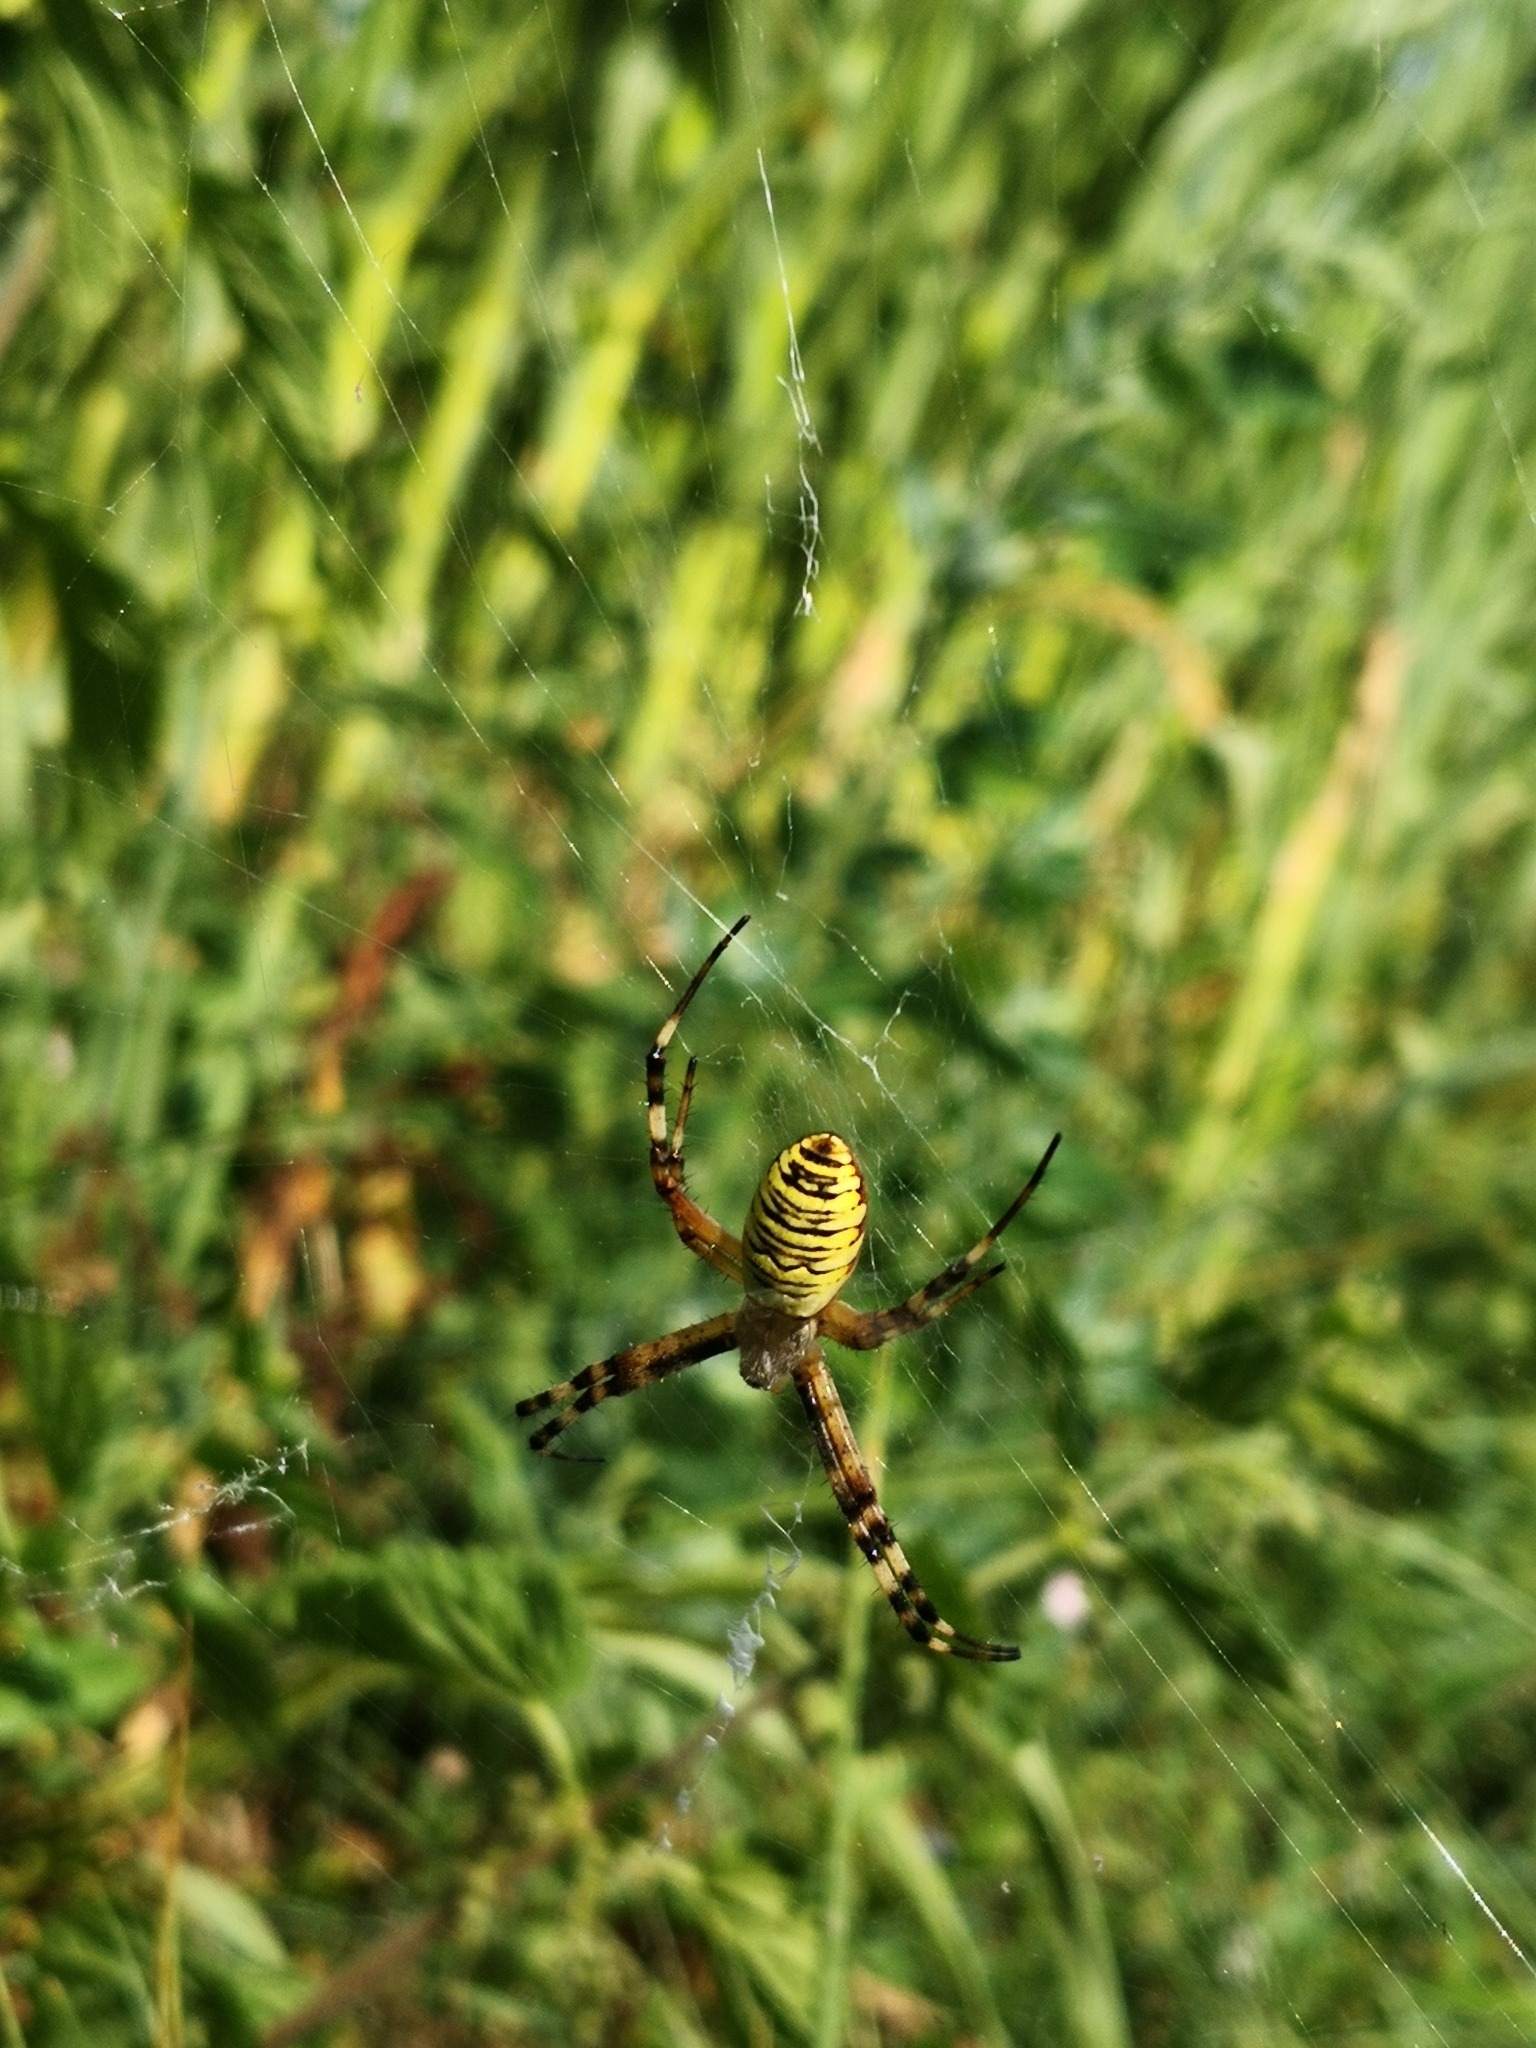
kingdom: Animalia
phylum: Arthropoda
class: Arachnida
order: Araneae
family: Araneidae
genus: Argiope
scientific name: Argiope bruennichi
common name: Wasp spider
